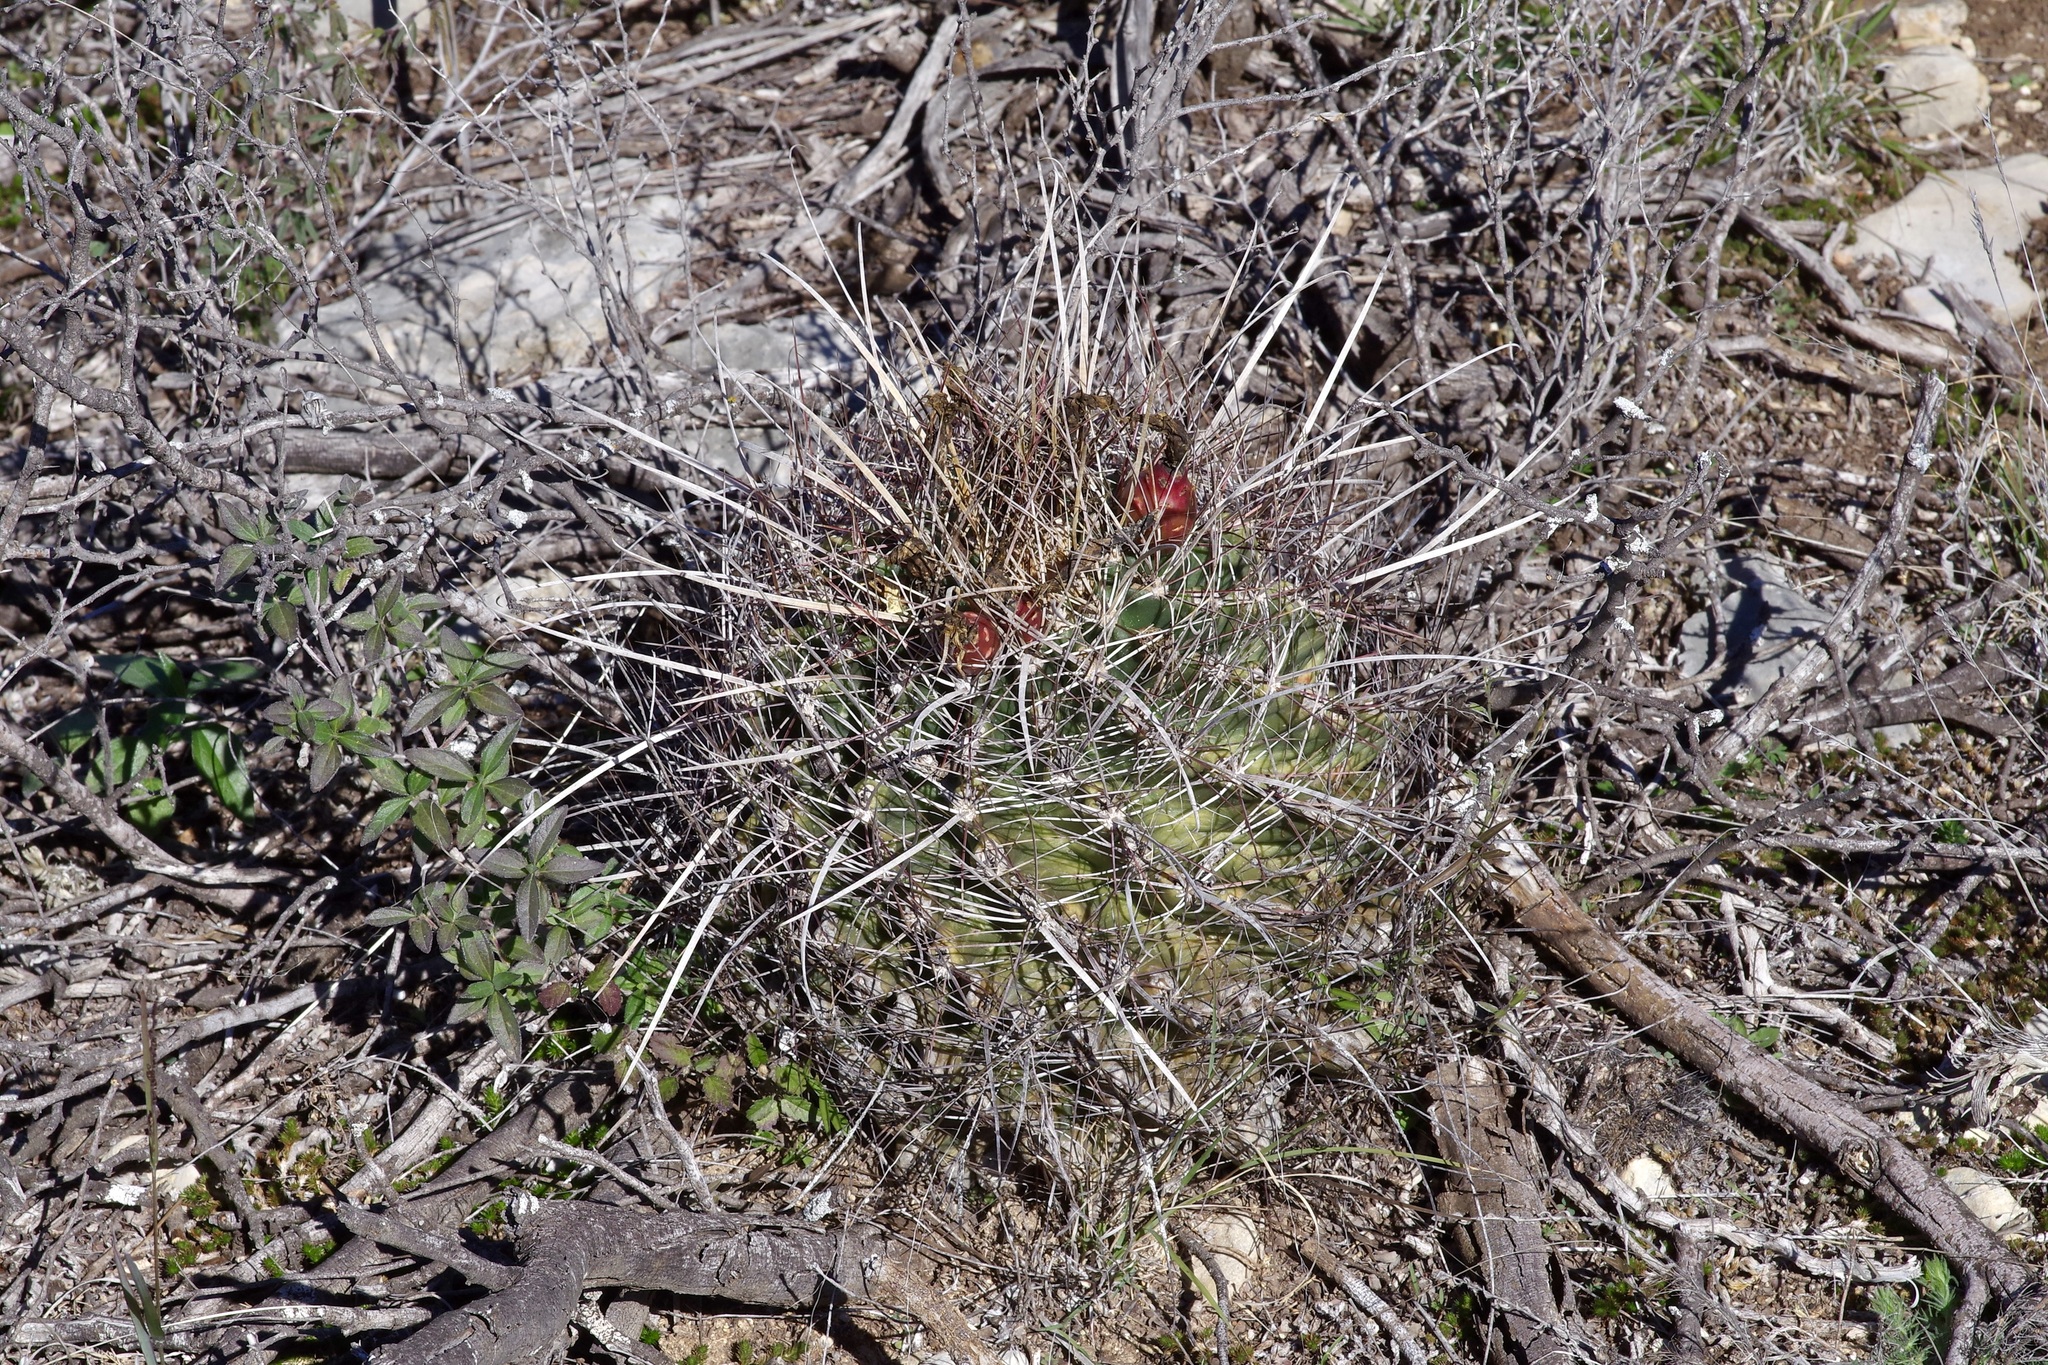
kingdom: Plantae
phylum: Tracheophyta
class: Magnoliopsida
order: Caryophyllales
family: Cactaceae
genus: Bisnaga
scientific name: Bisnaga hamatacantha
